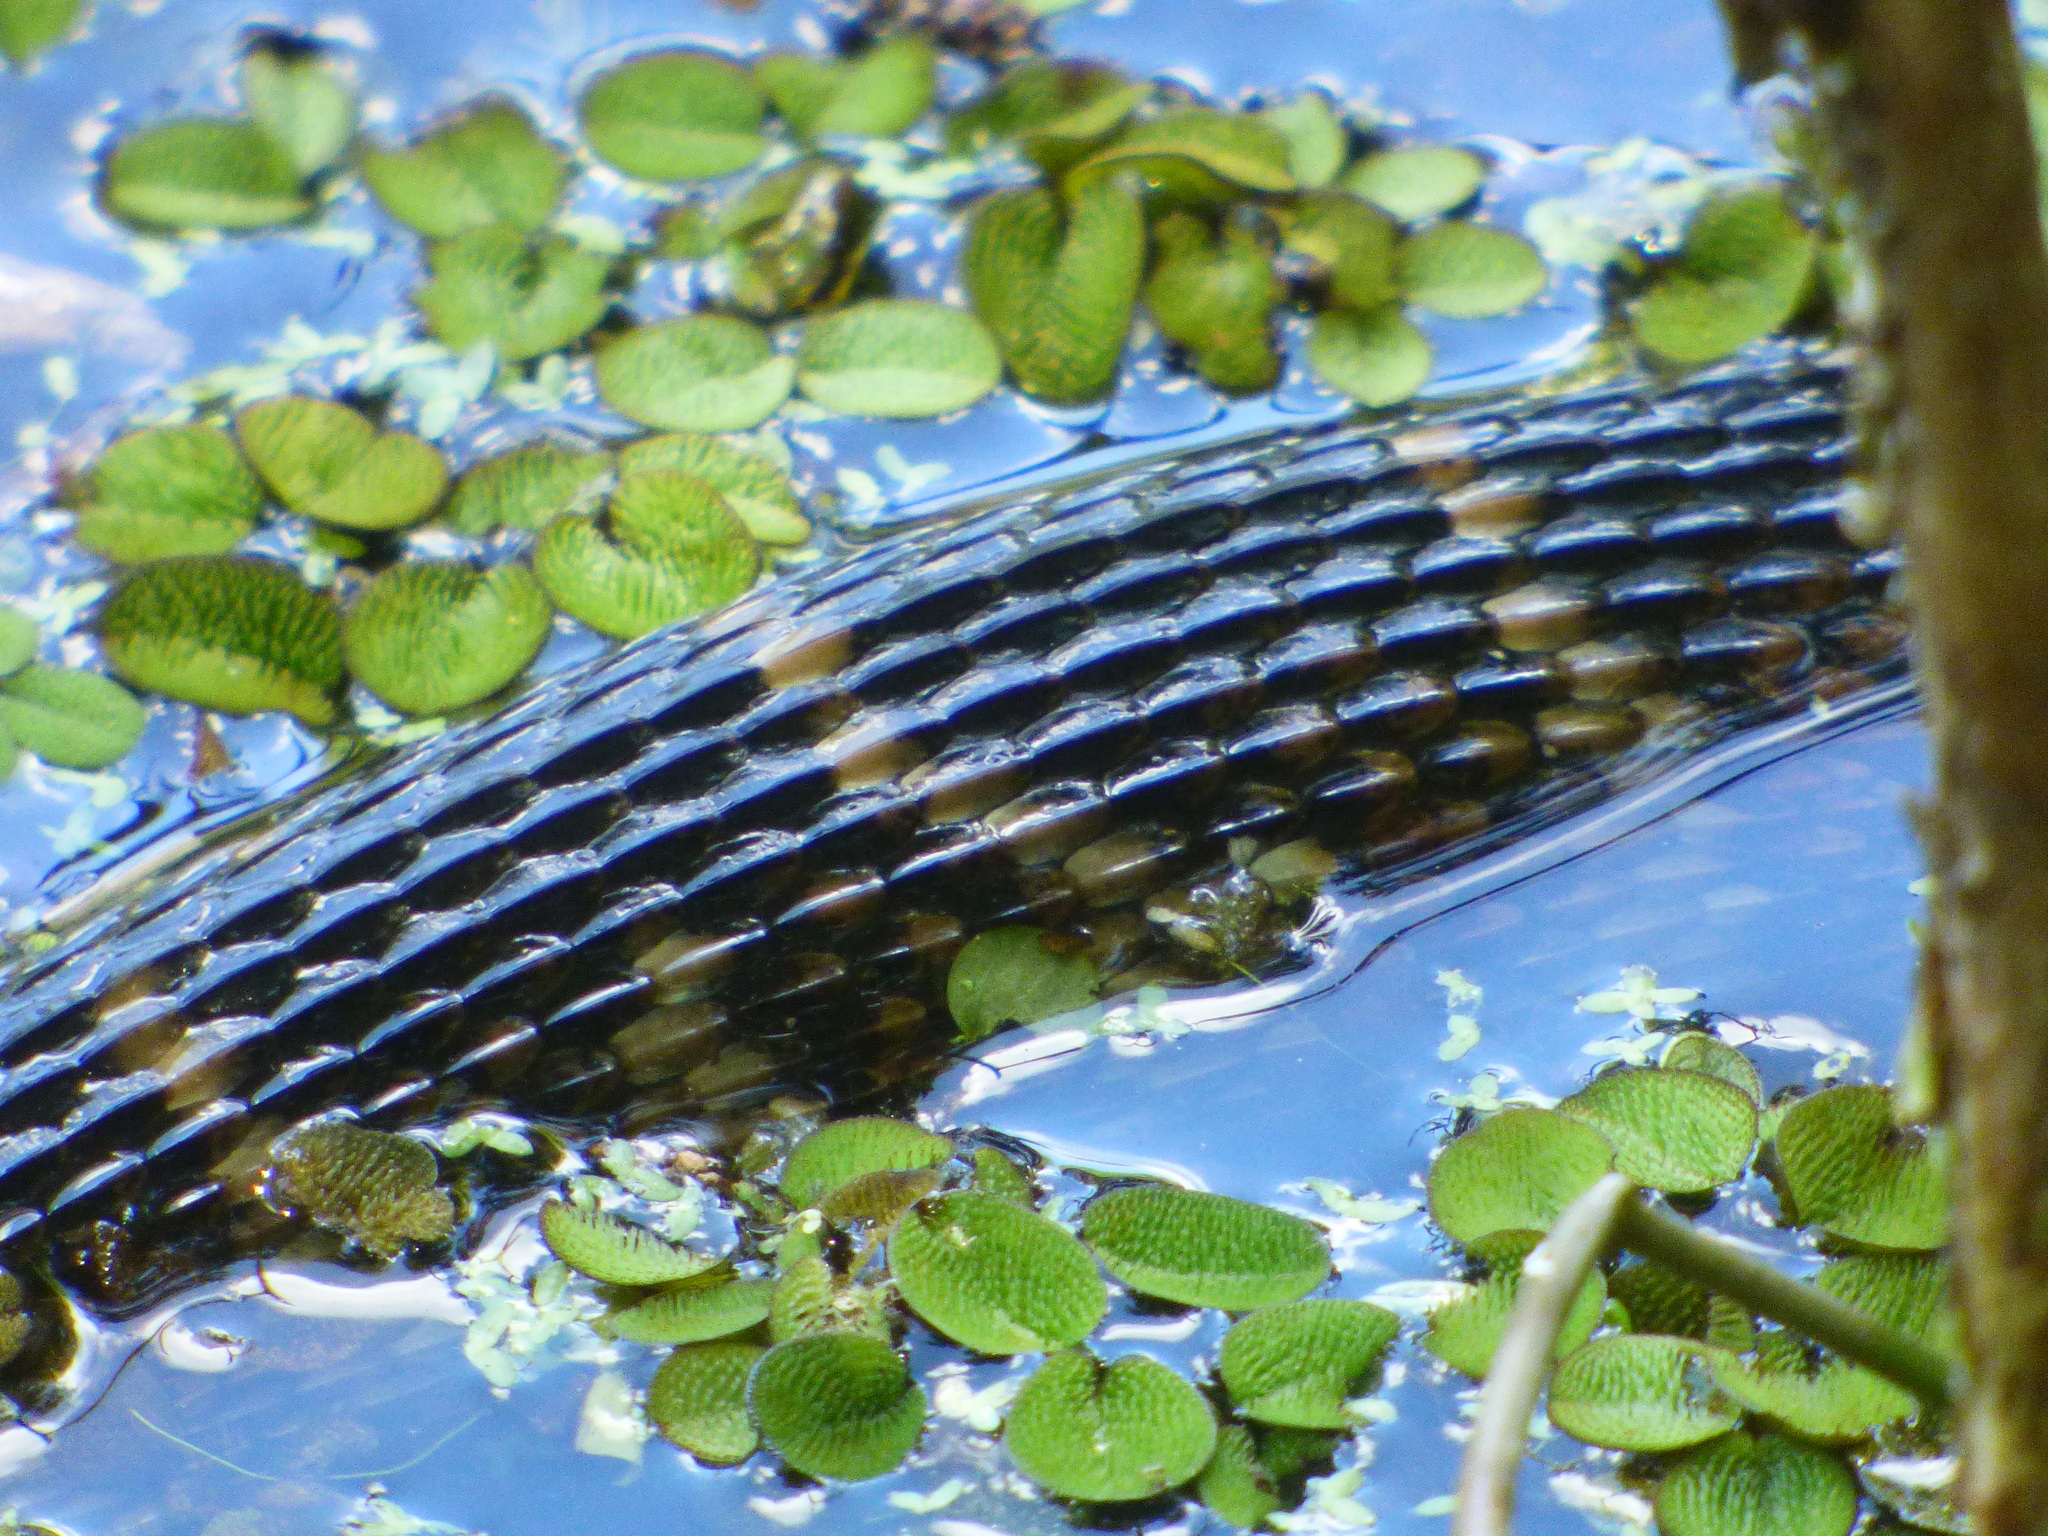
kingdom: Animalia
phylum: Chordata
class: Squamata
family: Colubridae
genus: Nerodia
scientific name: Nerodia fasciata
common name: Southern water snake
